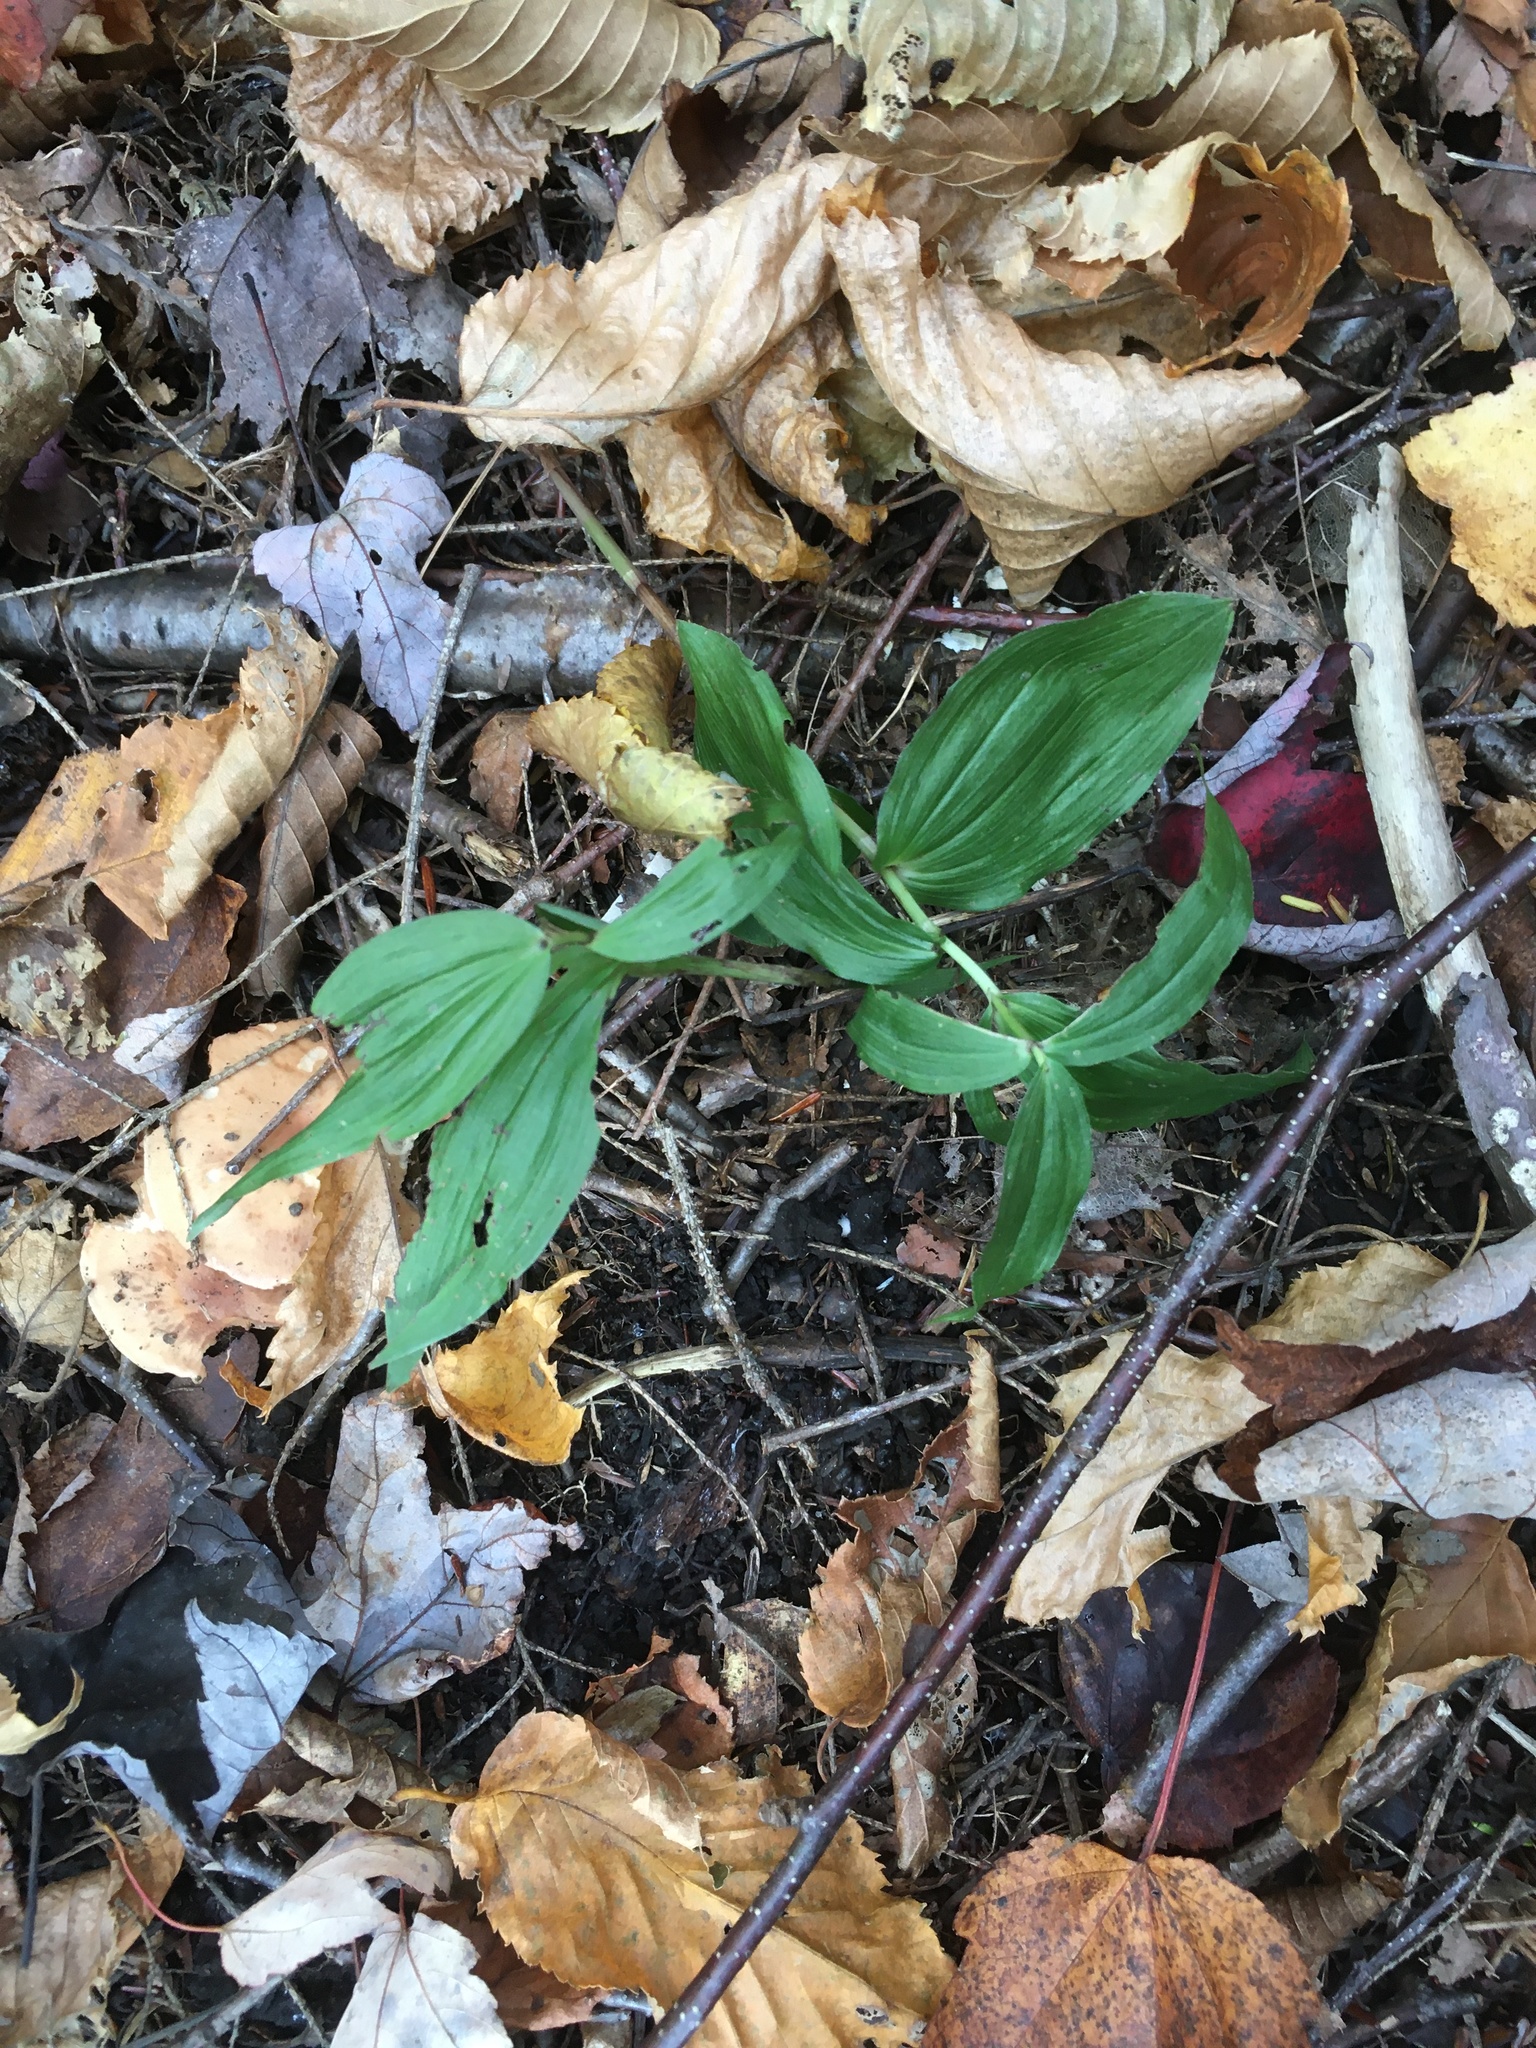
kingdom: Plantae
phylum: Tracheophyta
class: Liliopsida
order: Asparagales
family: Orchidaceae
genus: Epipactis
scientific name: Epipactis helleborine
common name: Broad-leaved helleborine
